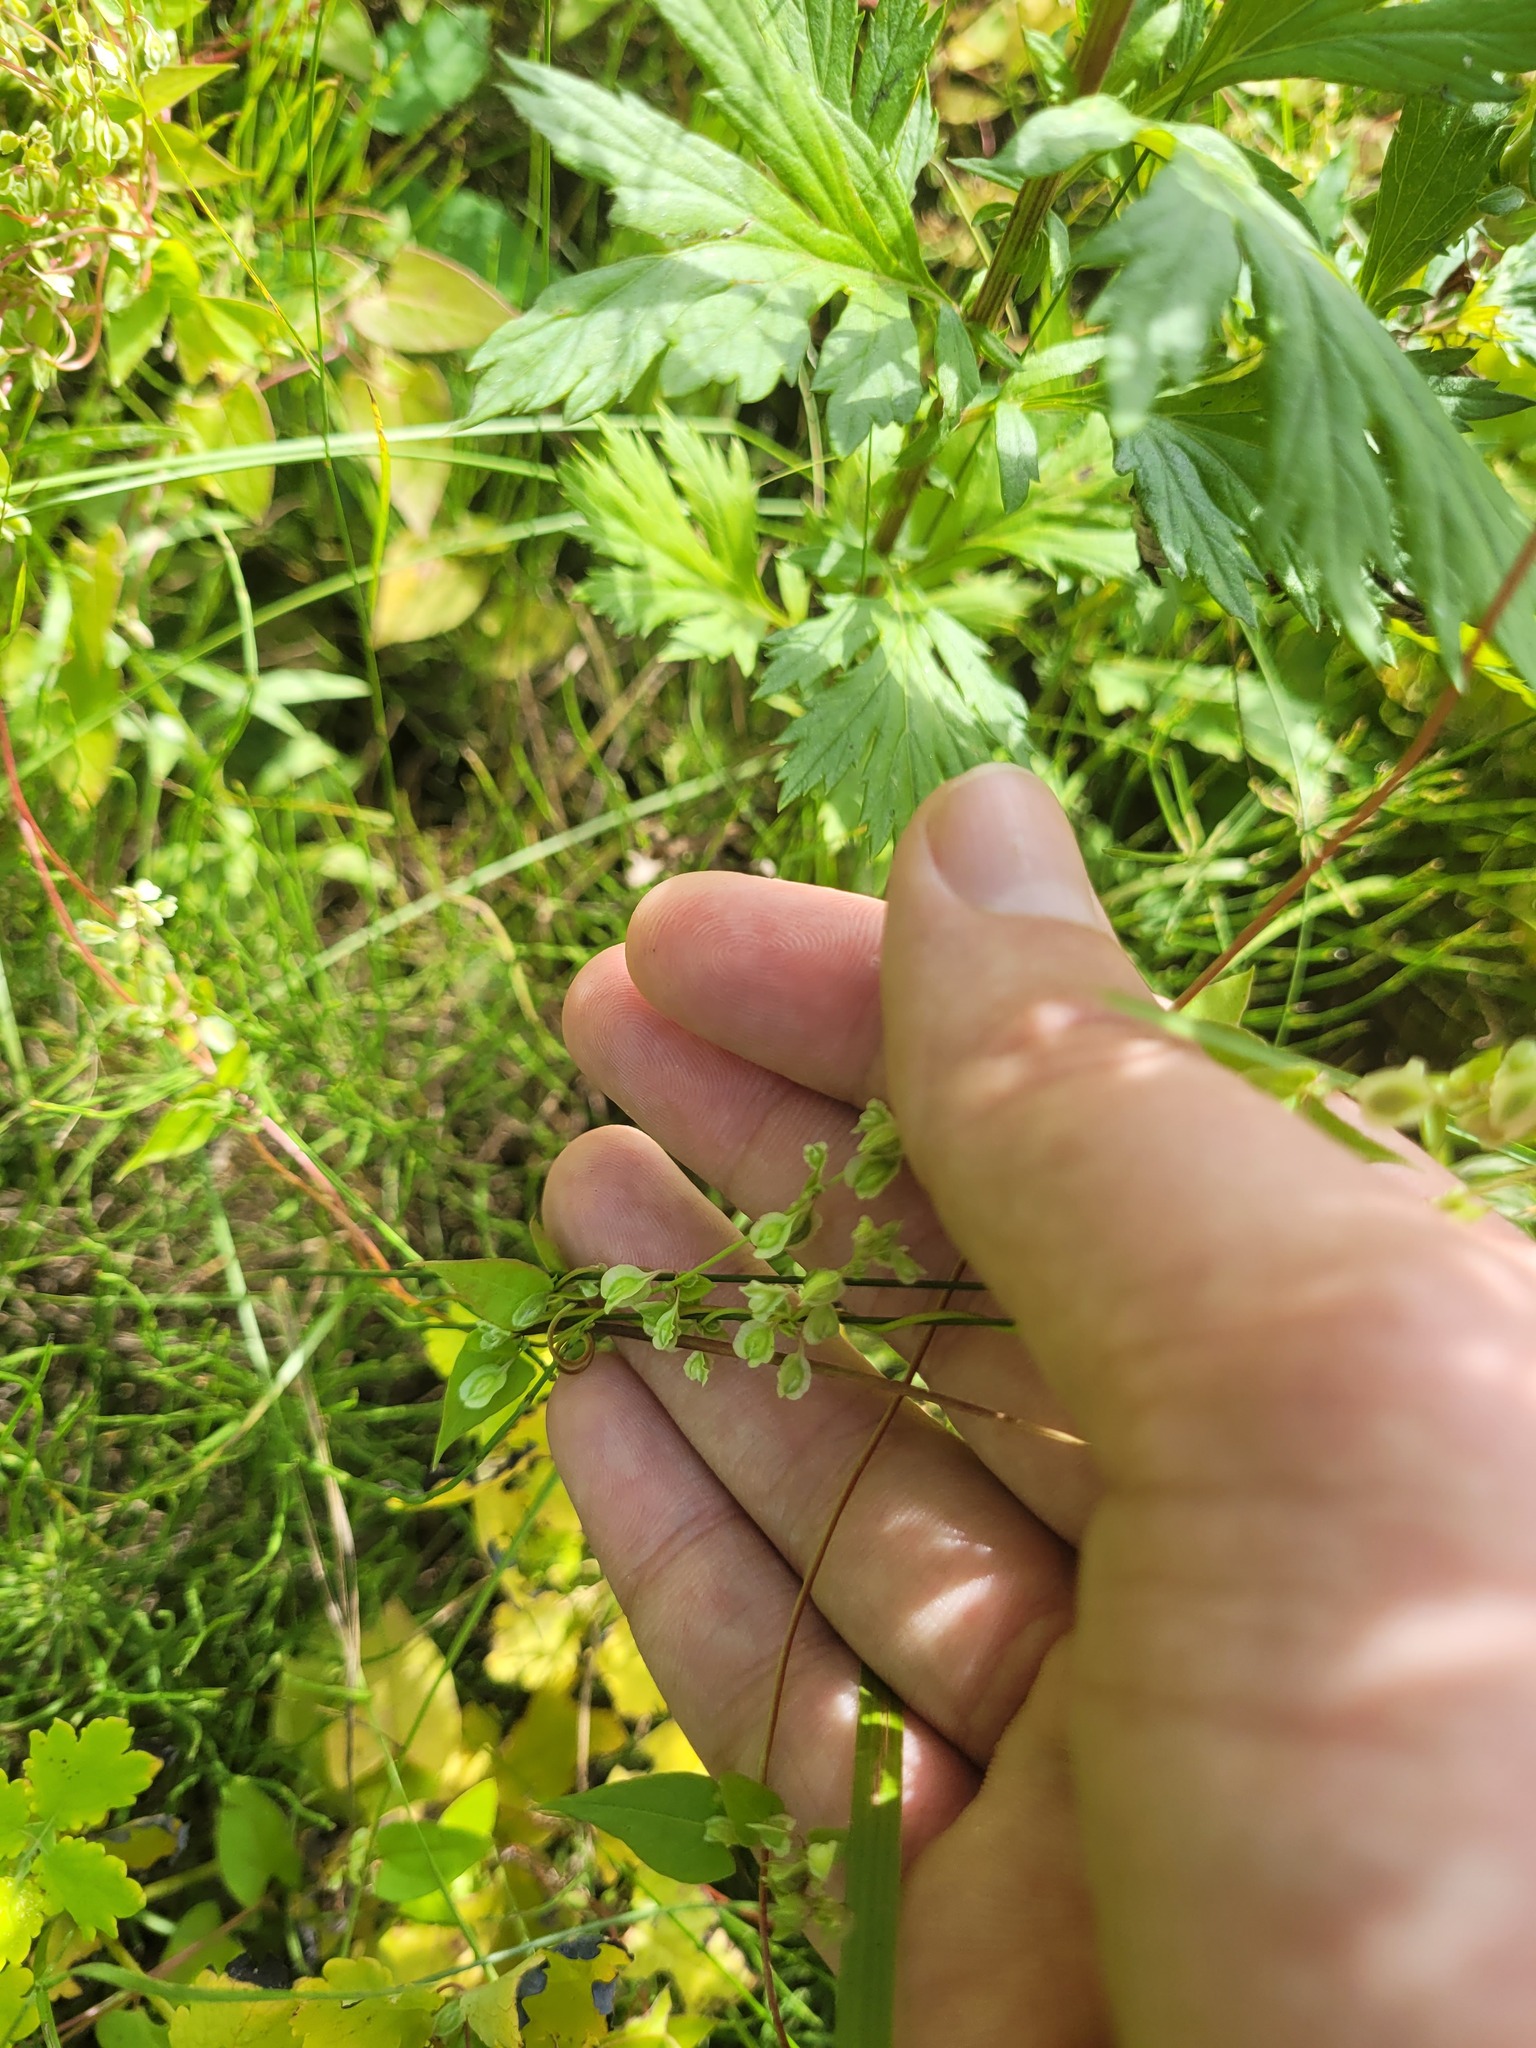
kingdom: Plantae
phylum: Tracheophyta
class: Magnoliopsida
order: Caryophyllales
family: Polygonaceae
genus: Fallopia
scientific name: Fallopia dumetorum
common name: Copse-bindweed
